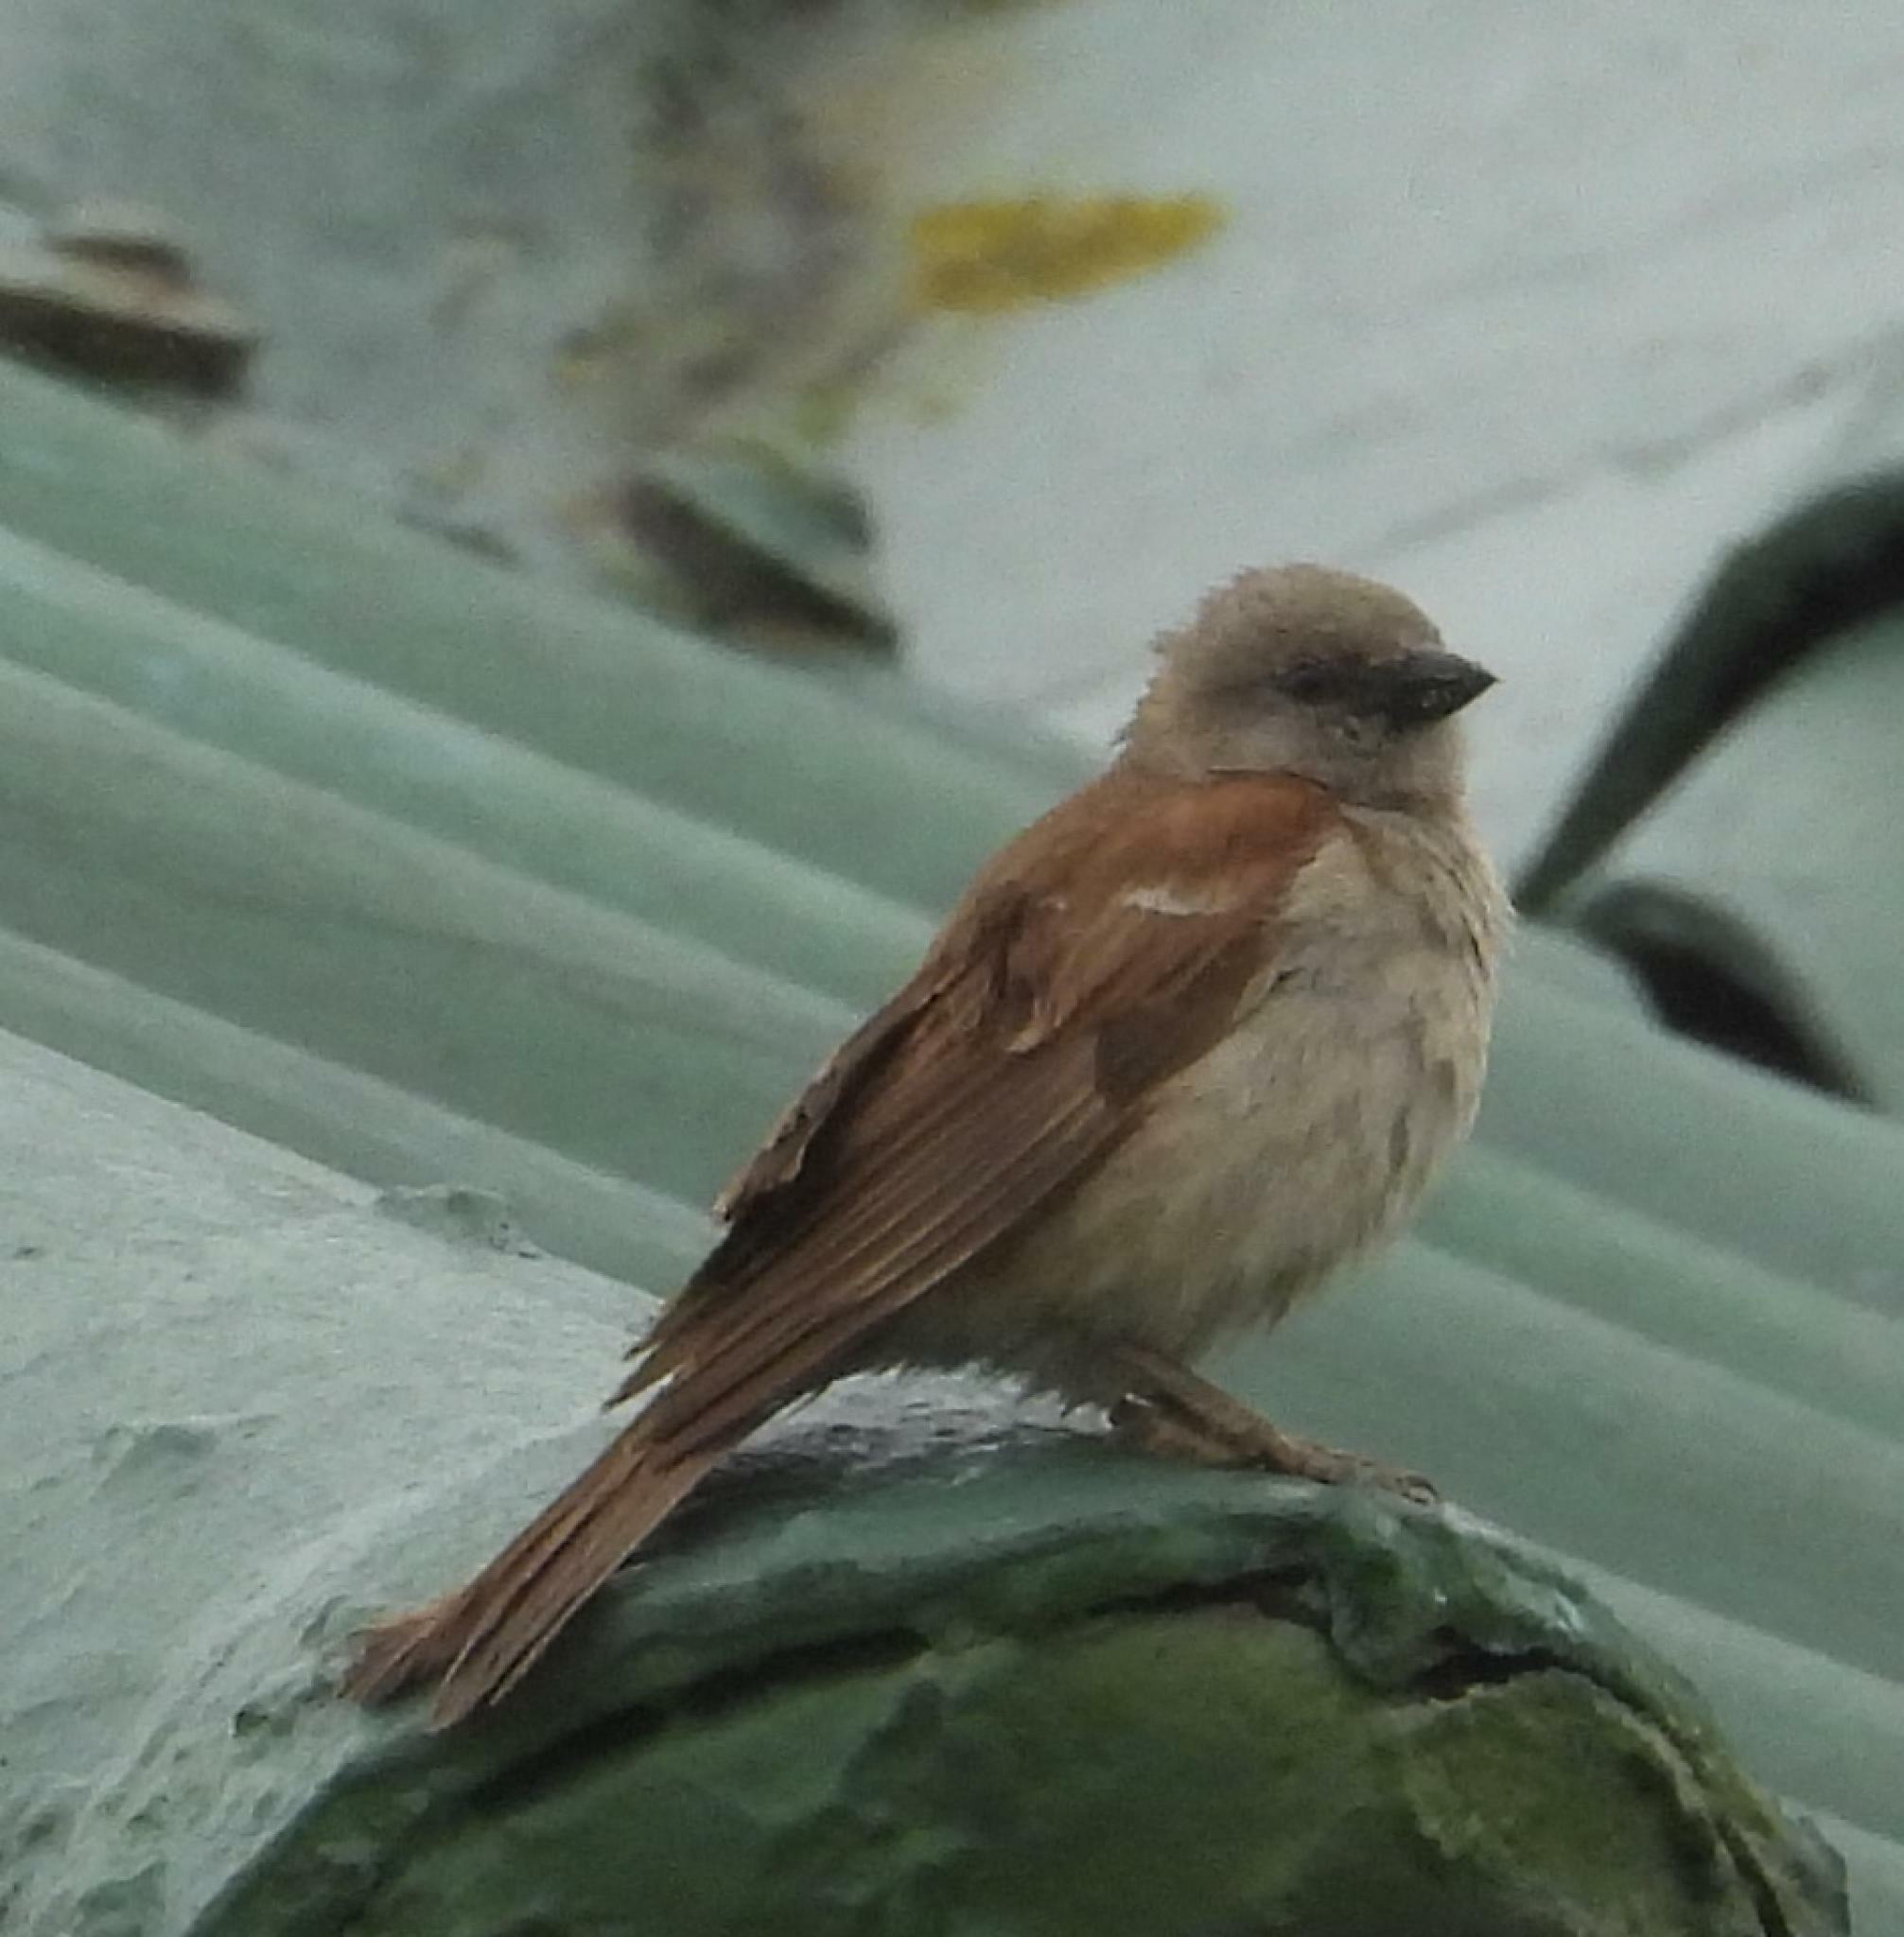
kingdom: Animalia
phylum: Chordata
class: Aves
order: Passeriformes
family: Passeridae
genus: Passer
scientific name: Passer diffusus
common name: Southern grey-headed sparrow
